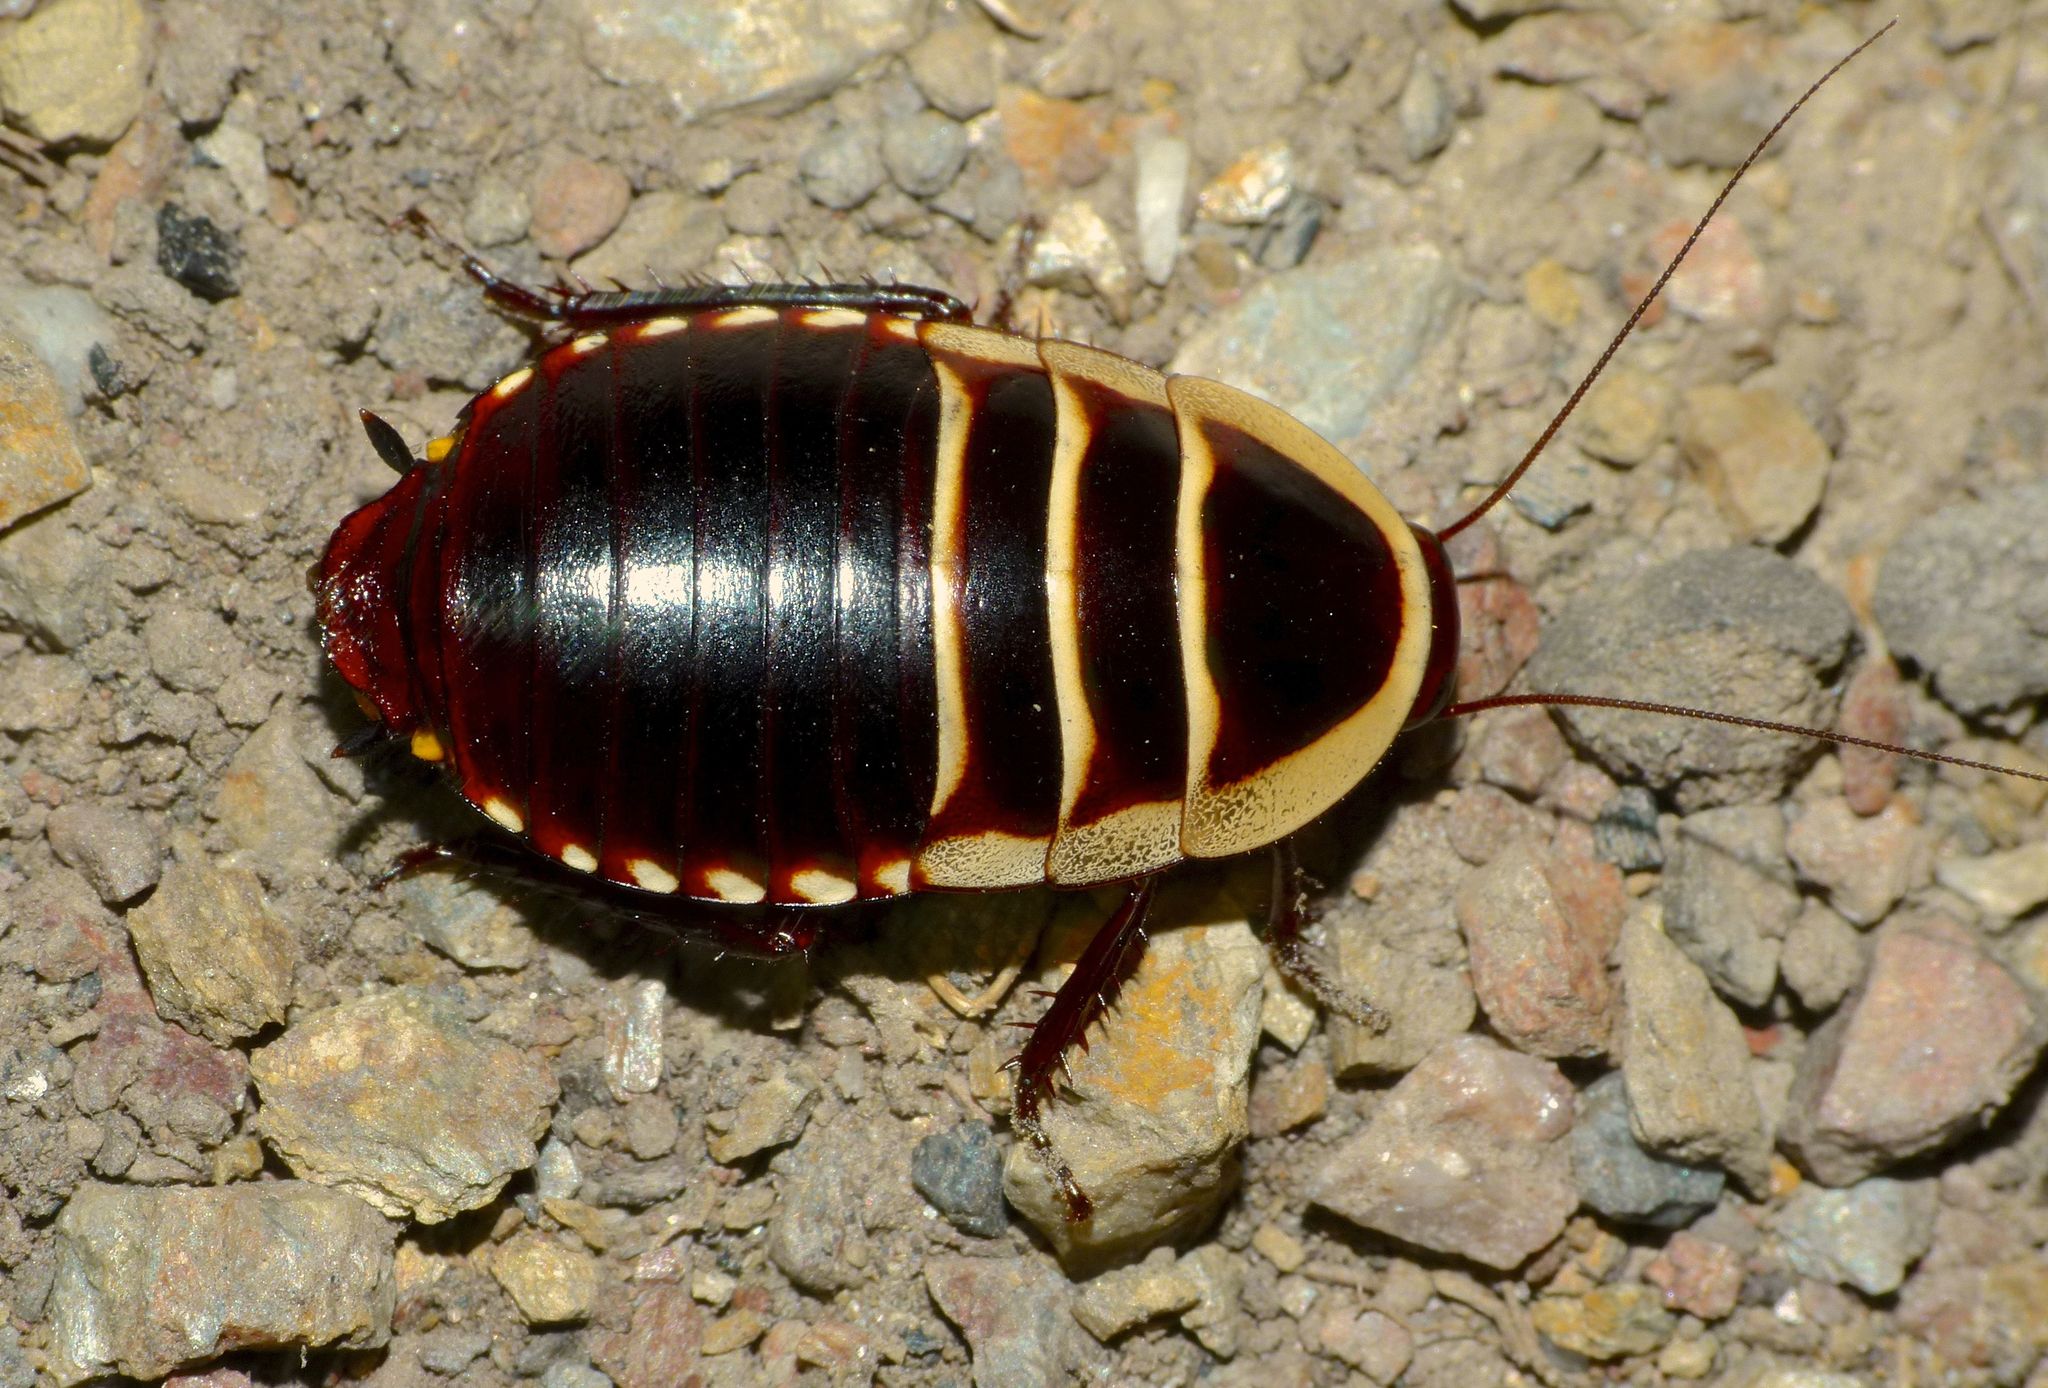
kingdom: Animalia
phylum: Arthropoda
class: Insecta
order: Blattodea
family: Blattidae
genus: Cosmozosteria
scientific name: Cosmozosteria subzonata
